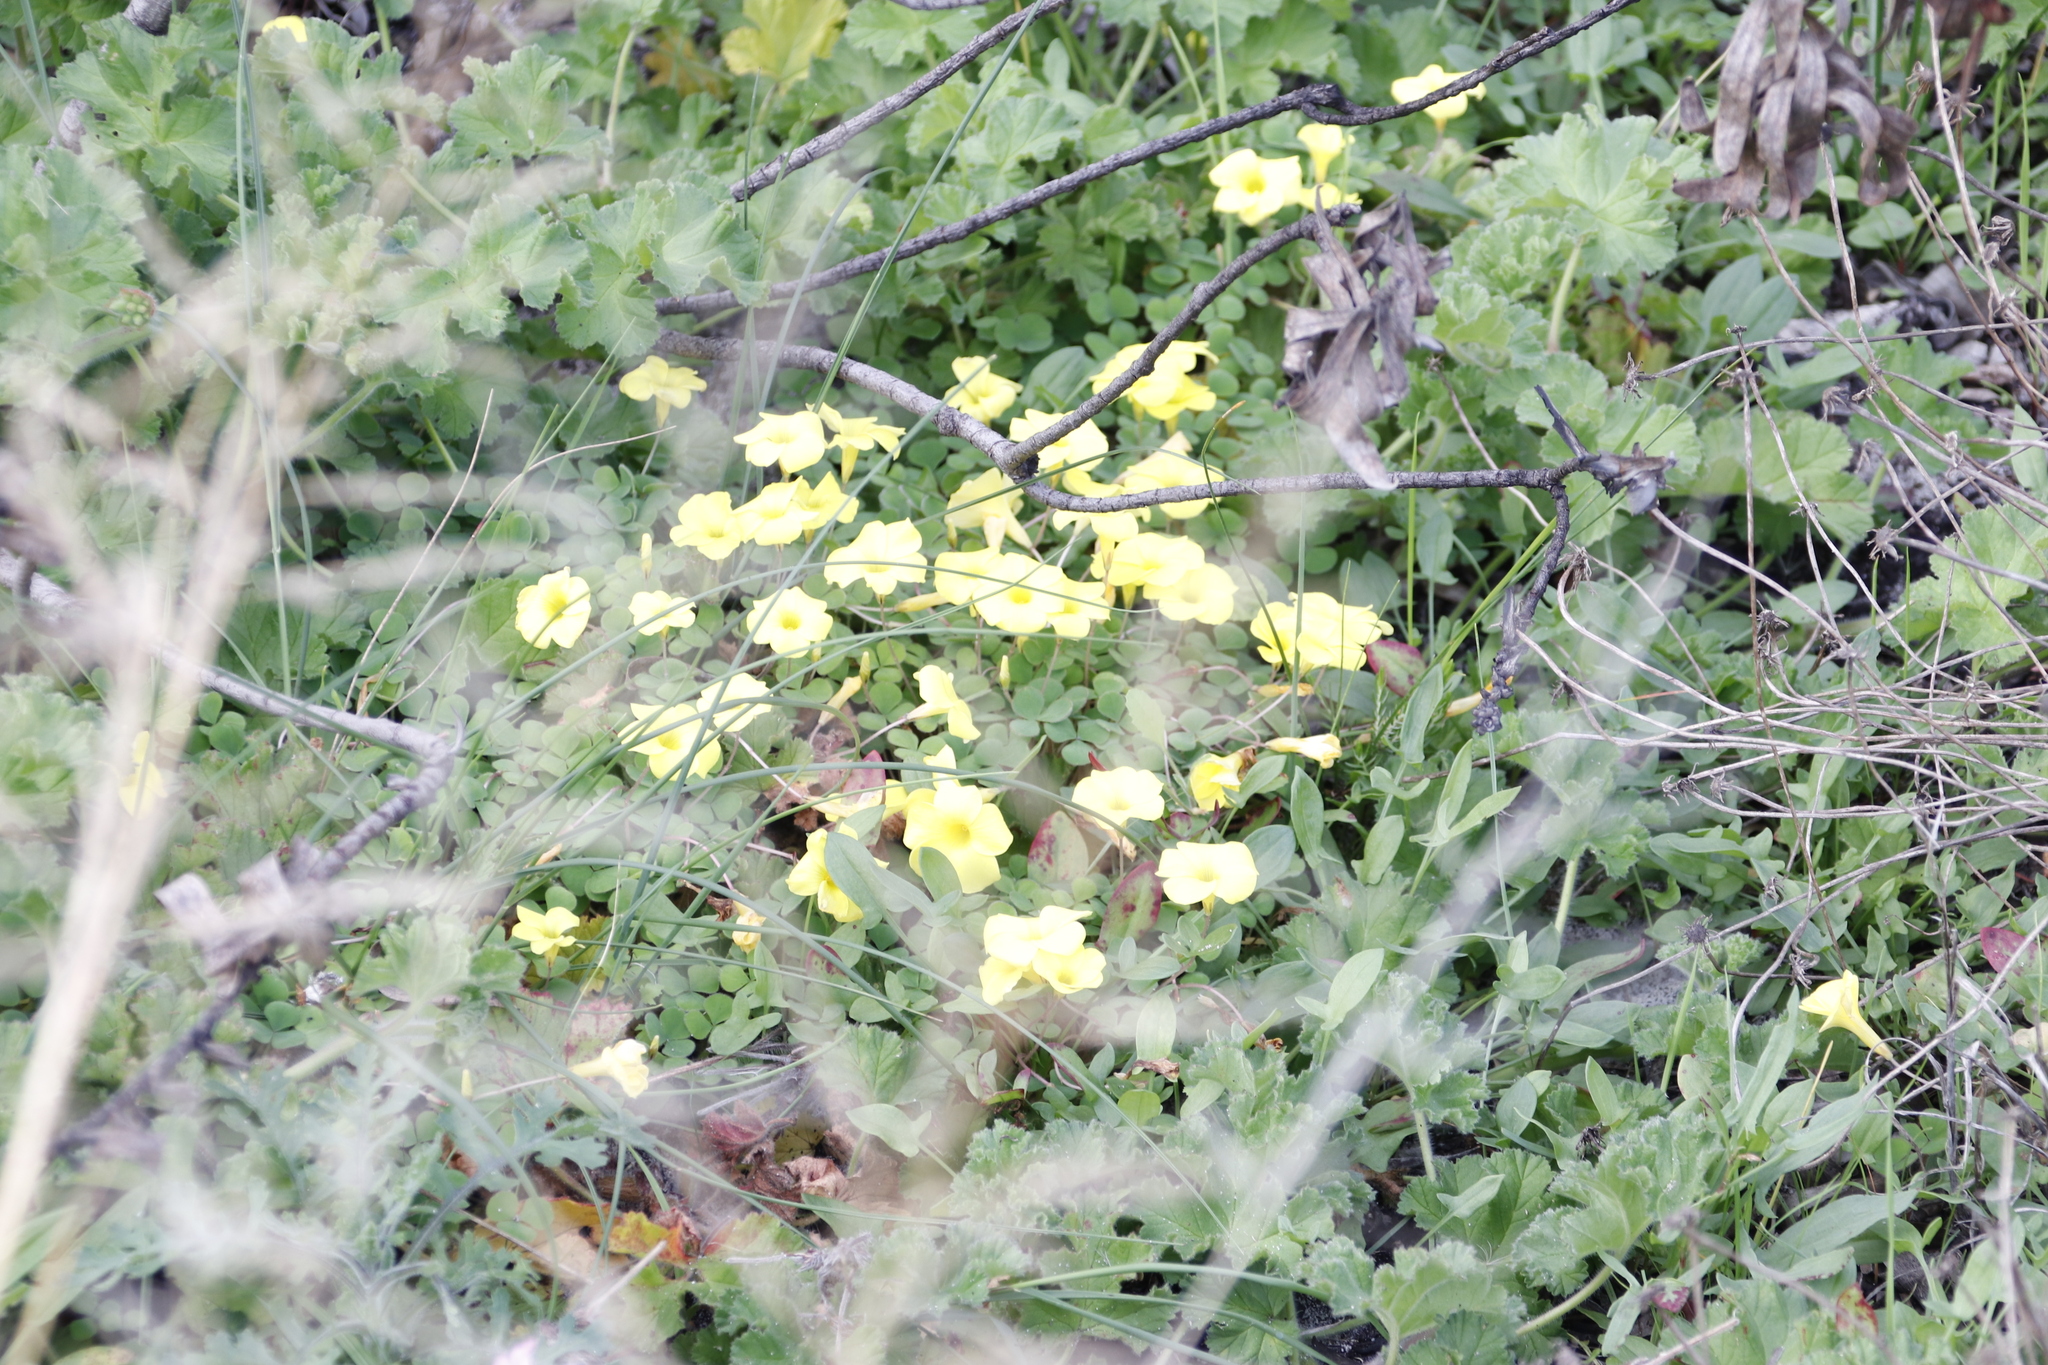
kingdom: Plantae
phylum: Tracheophyta
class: Magnoliopsida
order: Oxalidales
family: Oxalidaceae
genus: Oxalis
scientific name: Oxalis luteola
